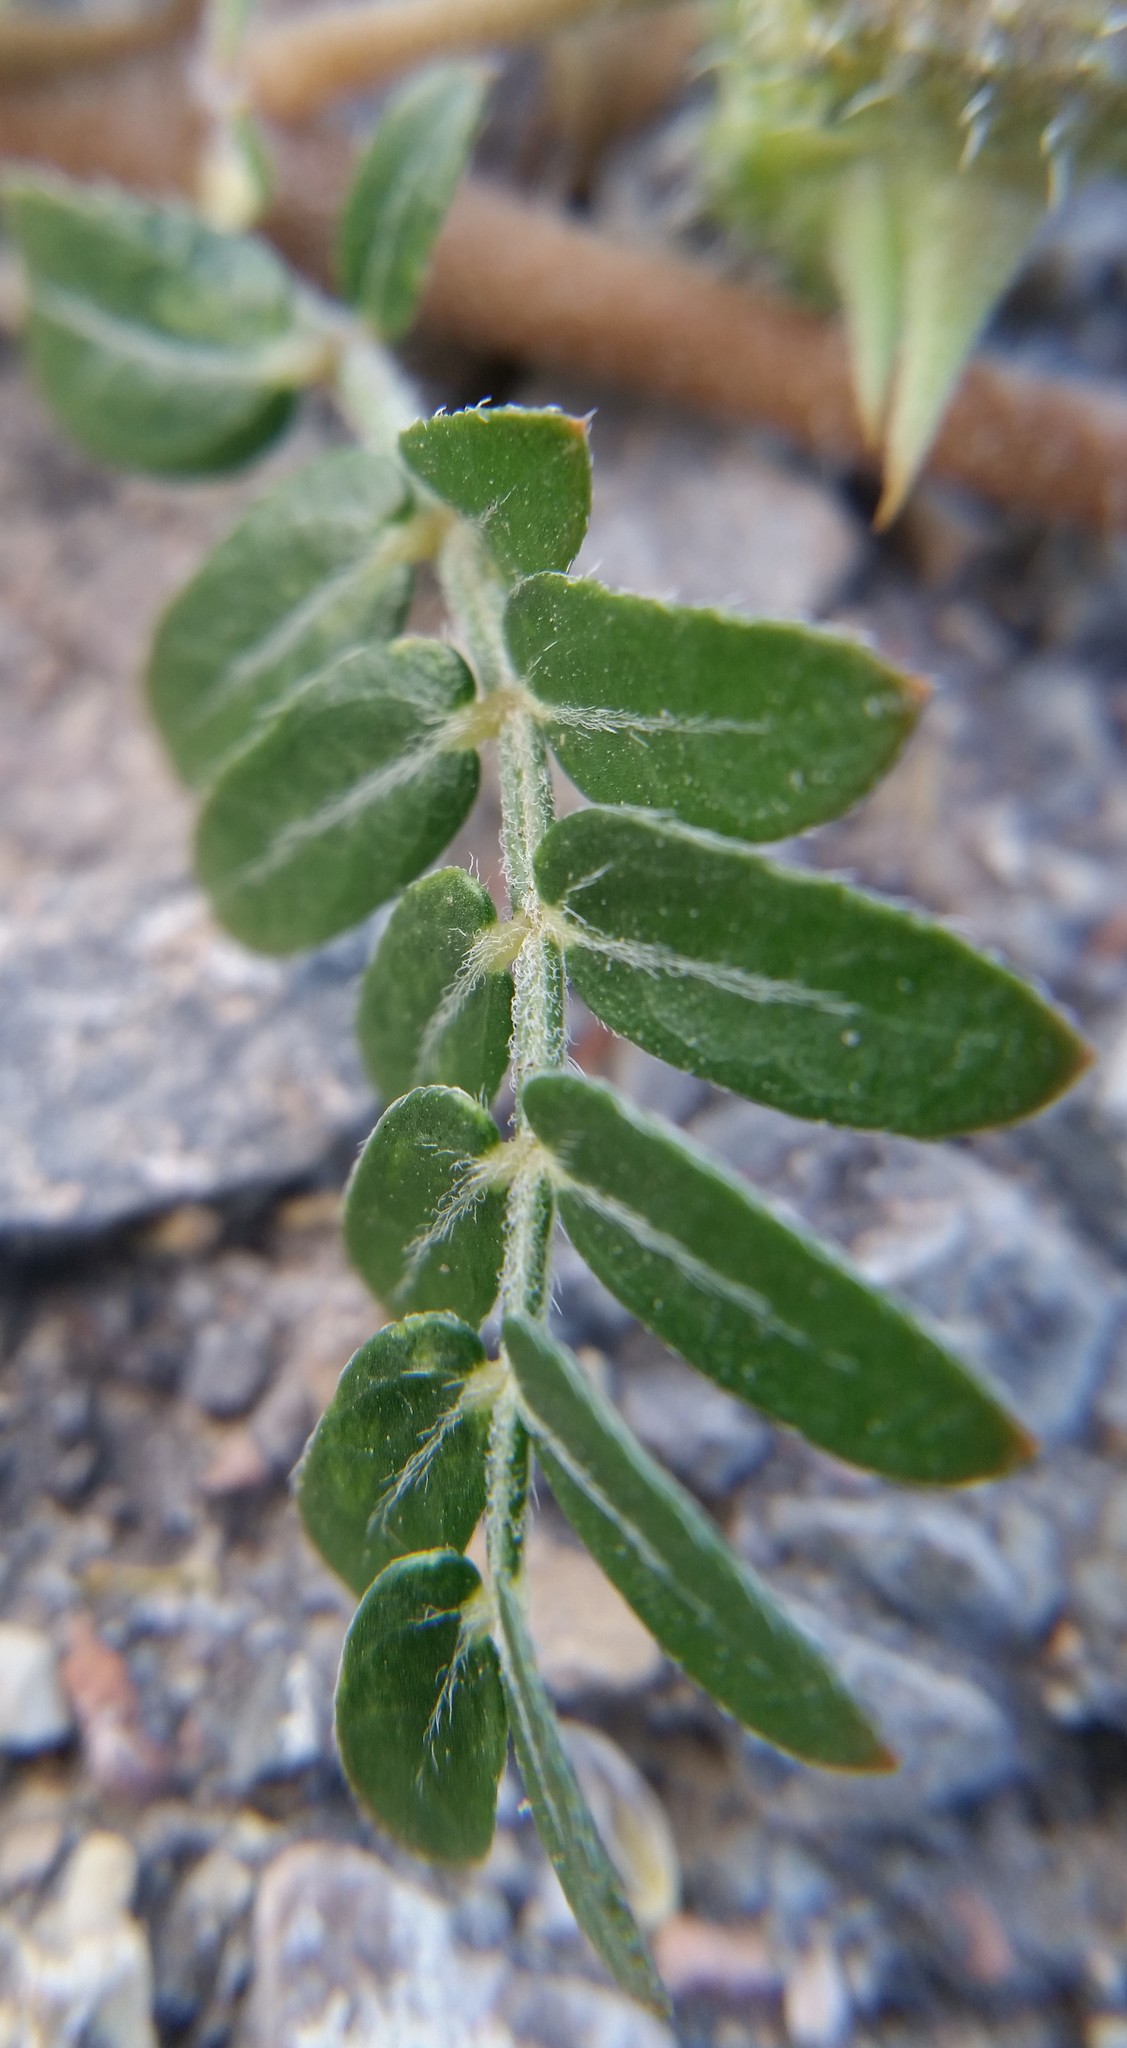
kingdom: Plantae
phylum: Tracheophyta
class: Magnoliopsida
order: Zygophyllales
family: Zygophyllaceae
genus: Tribulus
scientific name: Tribulus terrestris
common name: Puncturevine
